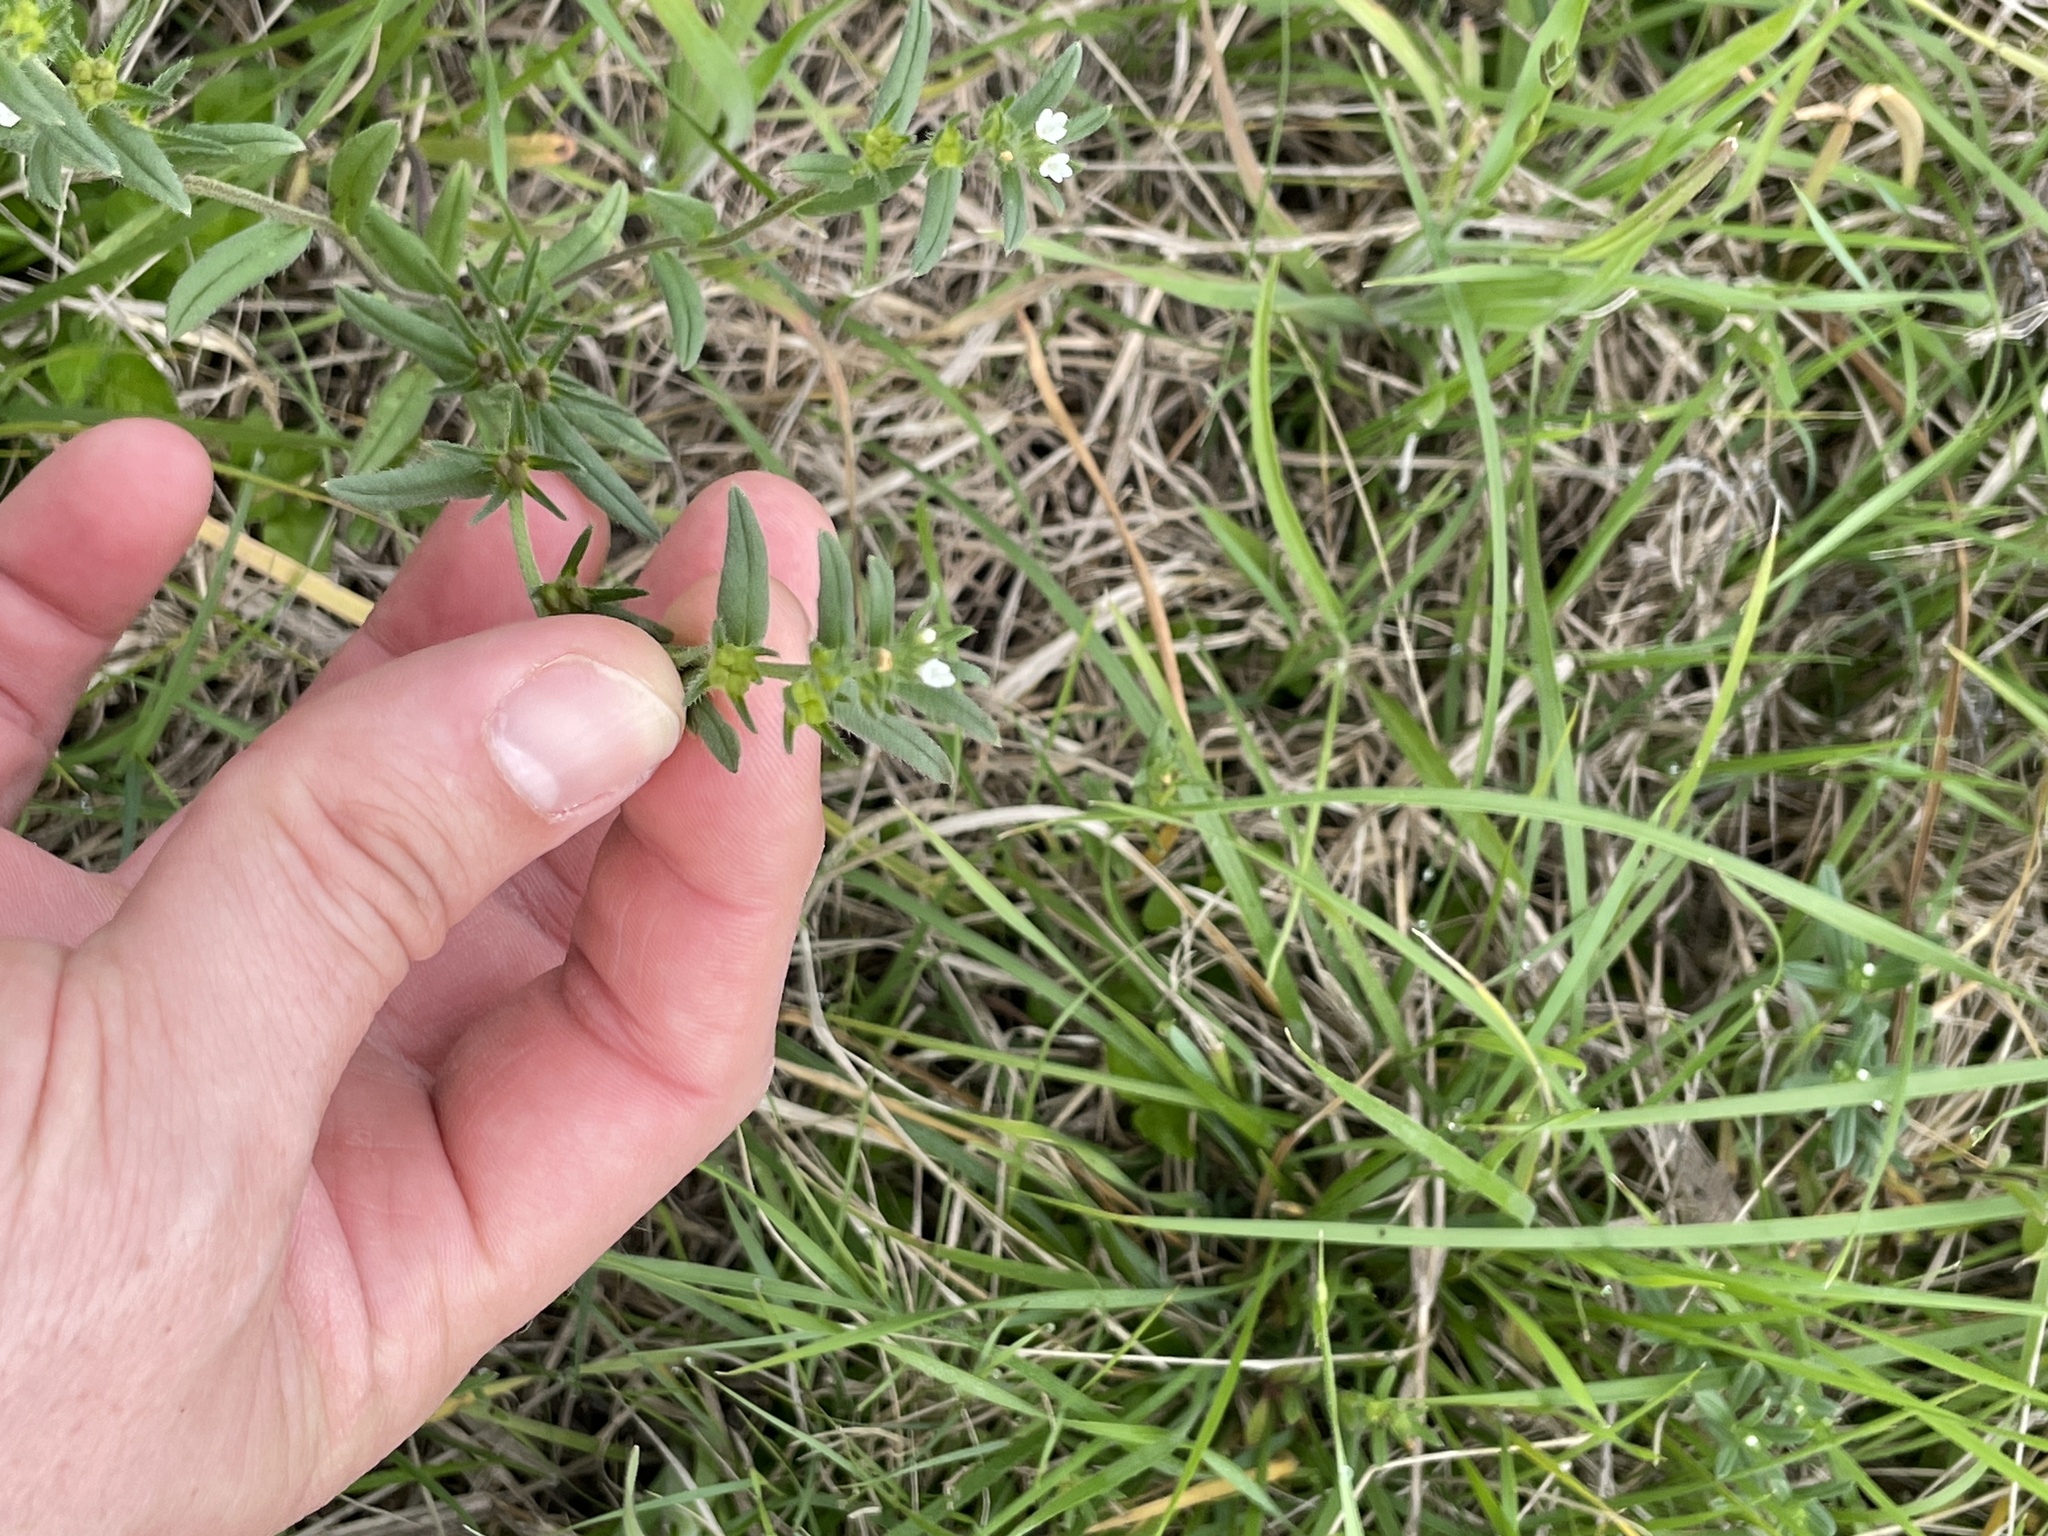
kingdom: Plantae
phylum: Tracheophyta
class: Magnoliopsida
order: Boraginales
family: Boraginaceae
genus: Buglossoides
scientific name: Buglossoides arvensis
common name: Corn gromwell
